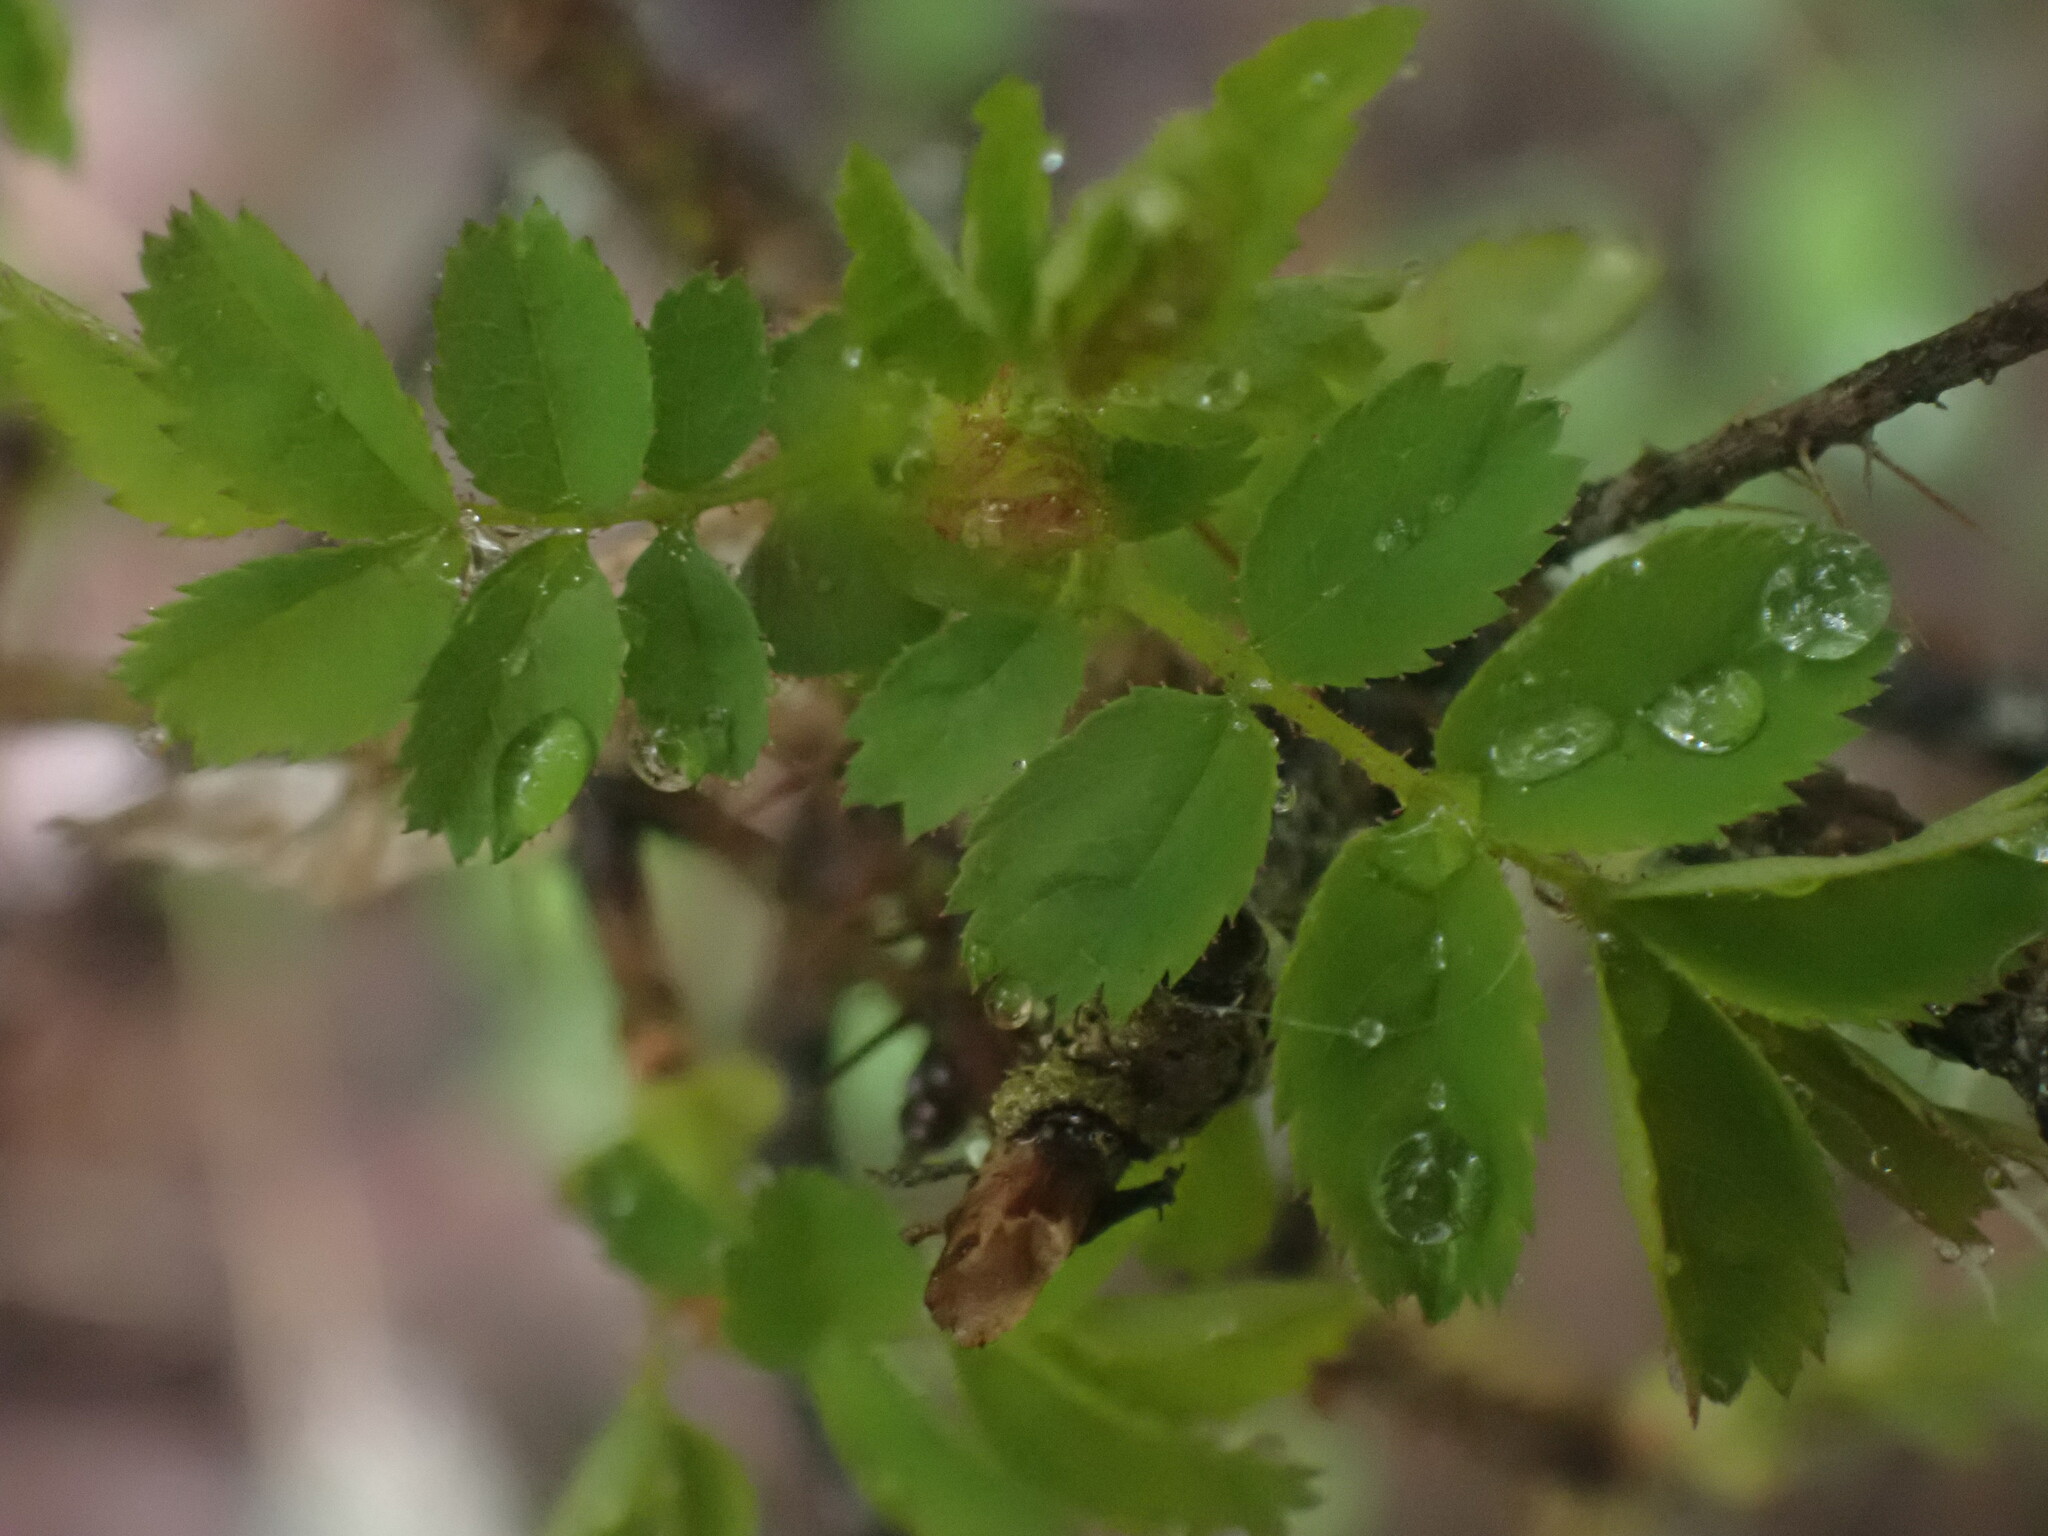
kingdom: Plantae
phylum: Tracheophyta
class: Magnoliopsida
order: Rosales
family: Rosaceae
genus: Rosa
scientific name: Rosa gymnocarpa
